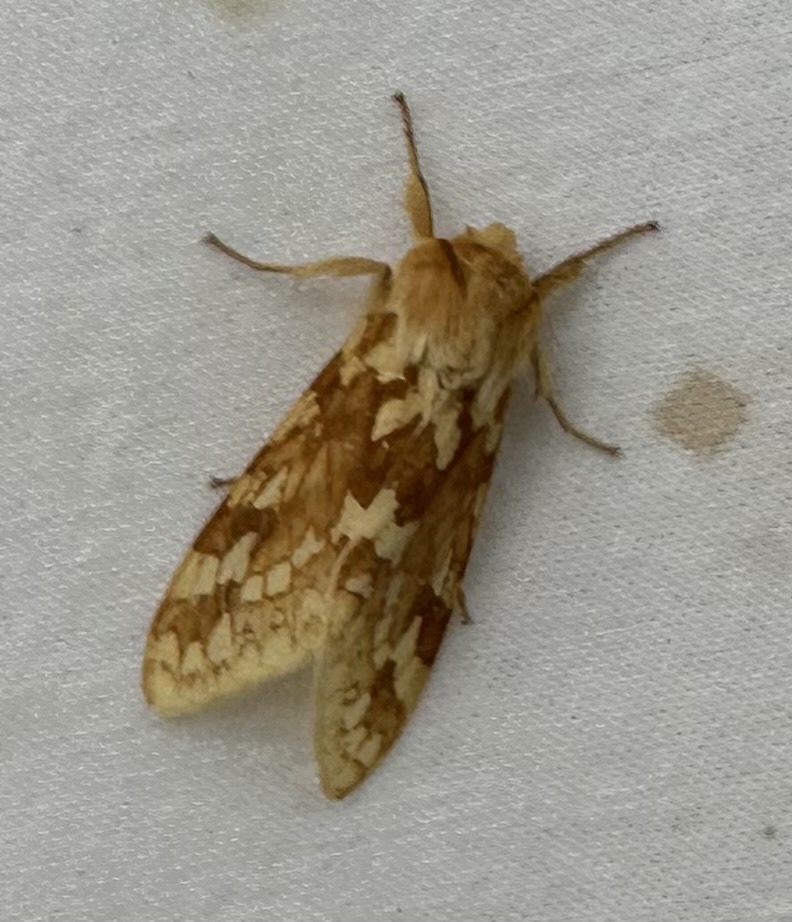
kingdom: Animalia
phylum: Arthropoda
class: Insecta
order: Lepidoptera
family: Erebidae
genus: Lophocampa
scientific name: Lophocampa maculata
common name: Spotted tussock moth
